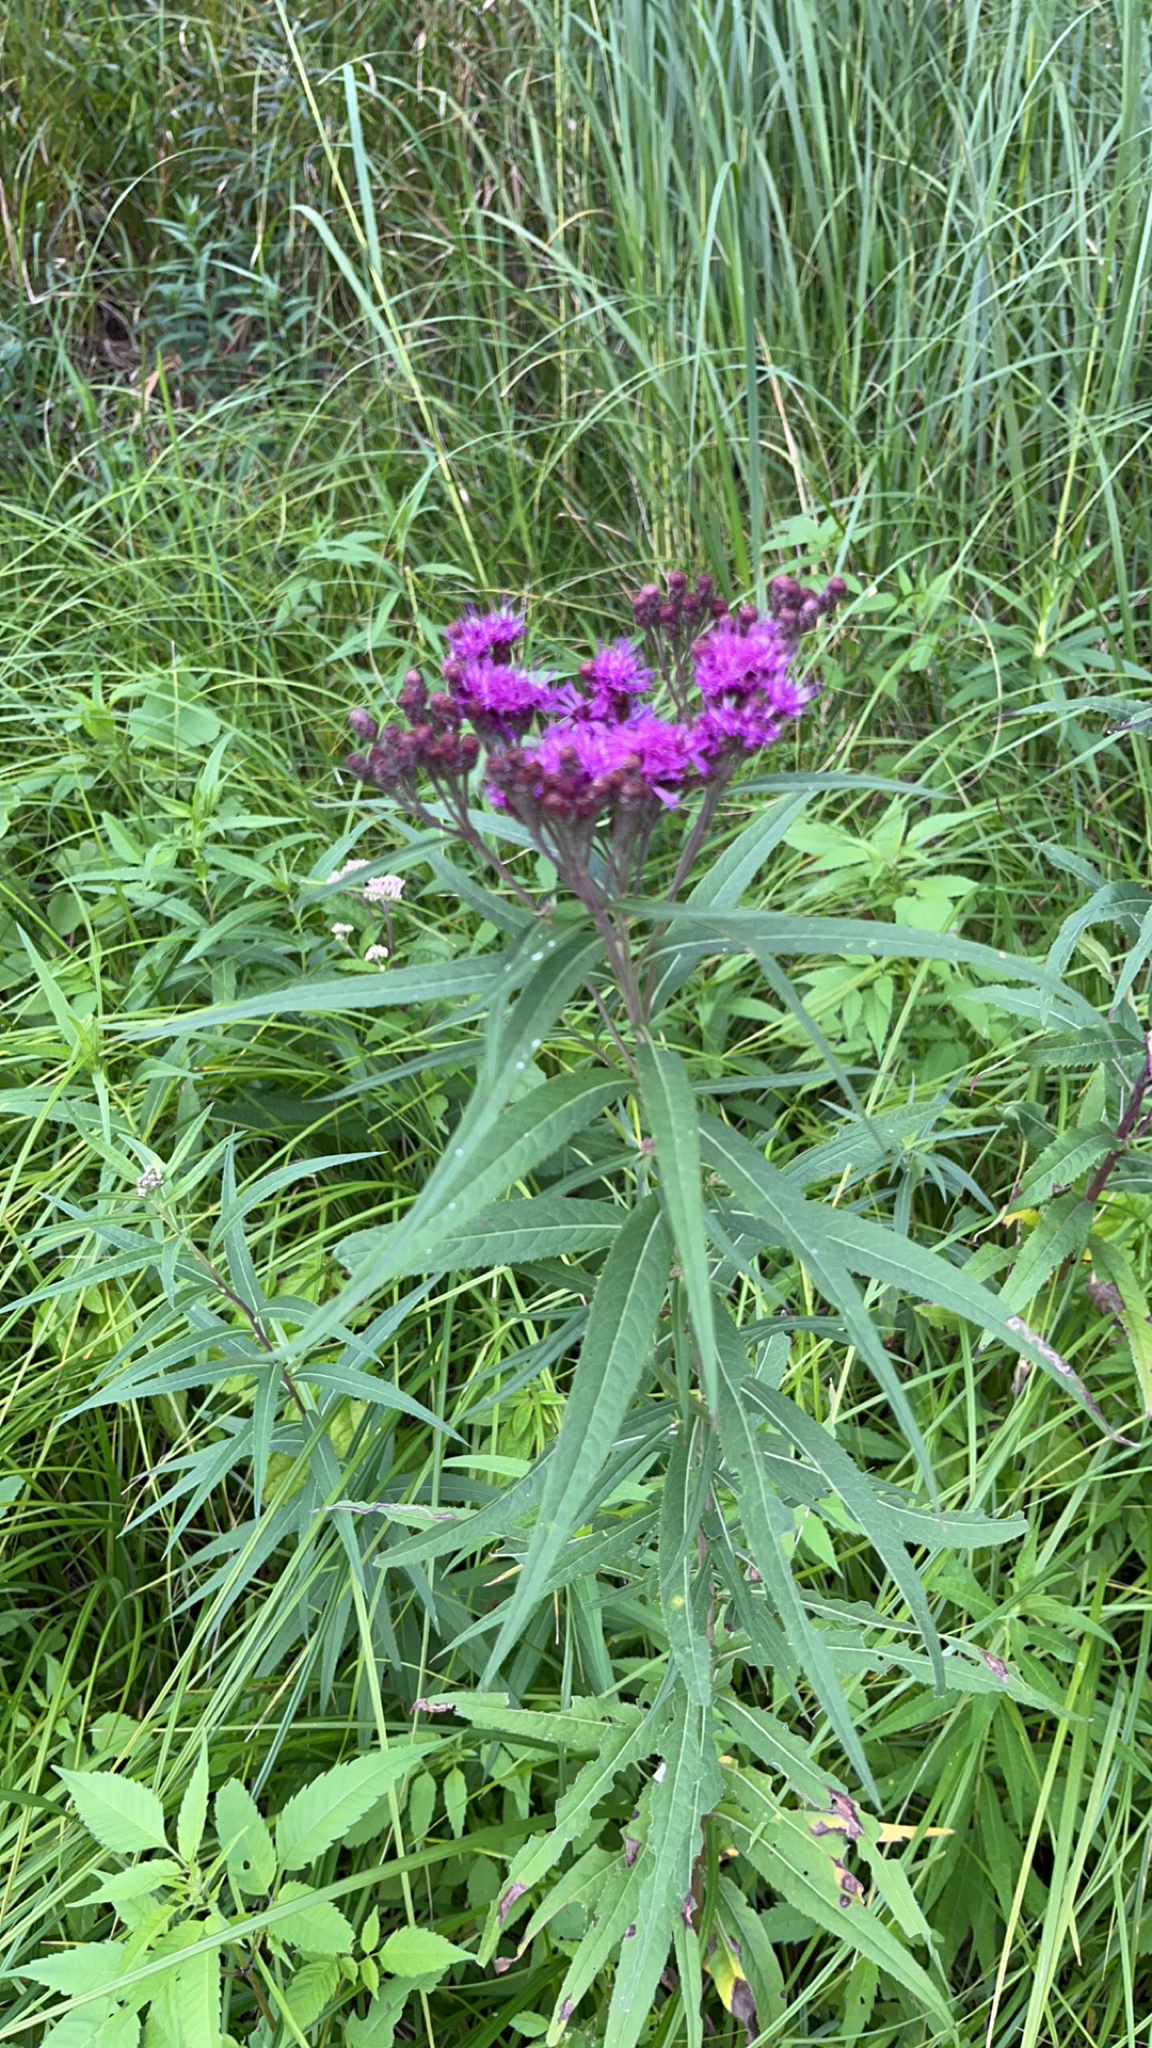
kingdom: Plantae
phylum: Tracheophyta
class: Magnoliopsida
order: Asterales
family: Asteraceae
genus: Vernonia
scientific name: Vernonia fasciculata
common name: Fascicled ironweed
